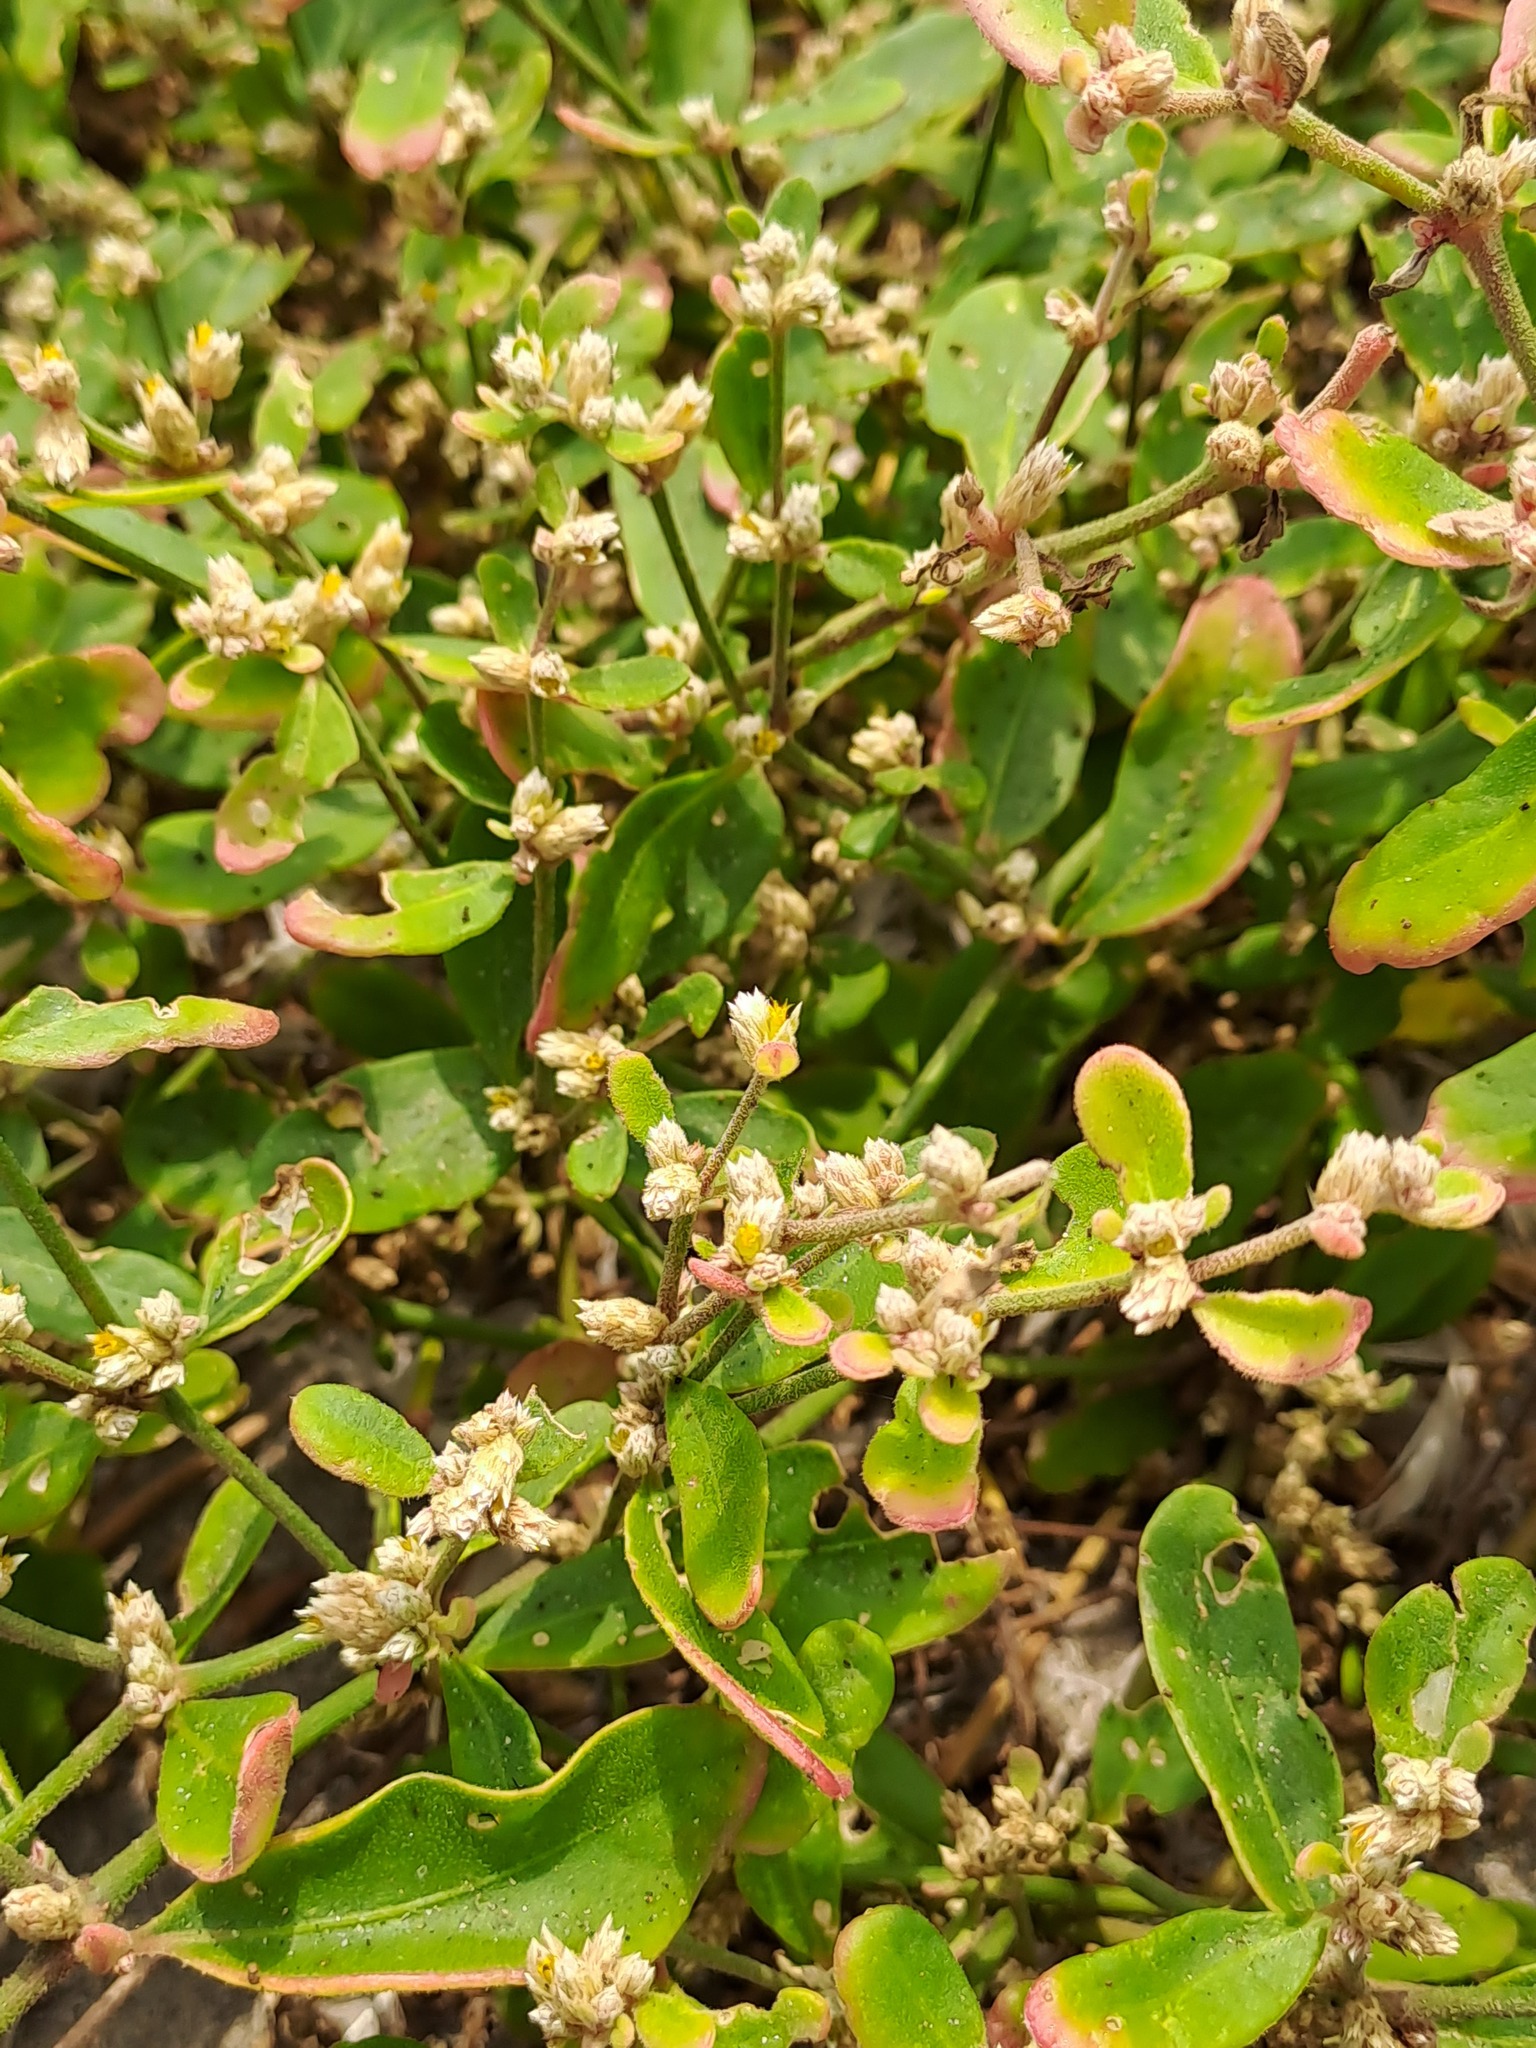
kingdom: Plantae
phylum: Tracheophyta
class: Magnoliopsida
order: Caryophyllales
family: Amaranthaceae
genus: Alternanthera
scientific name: Alternanthera halimifolia
